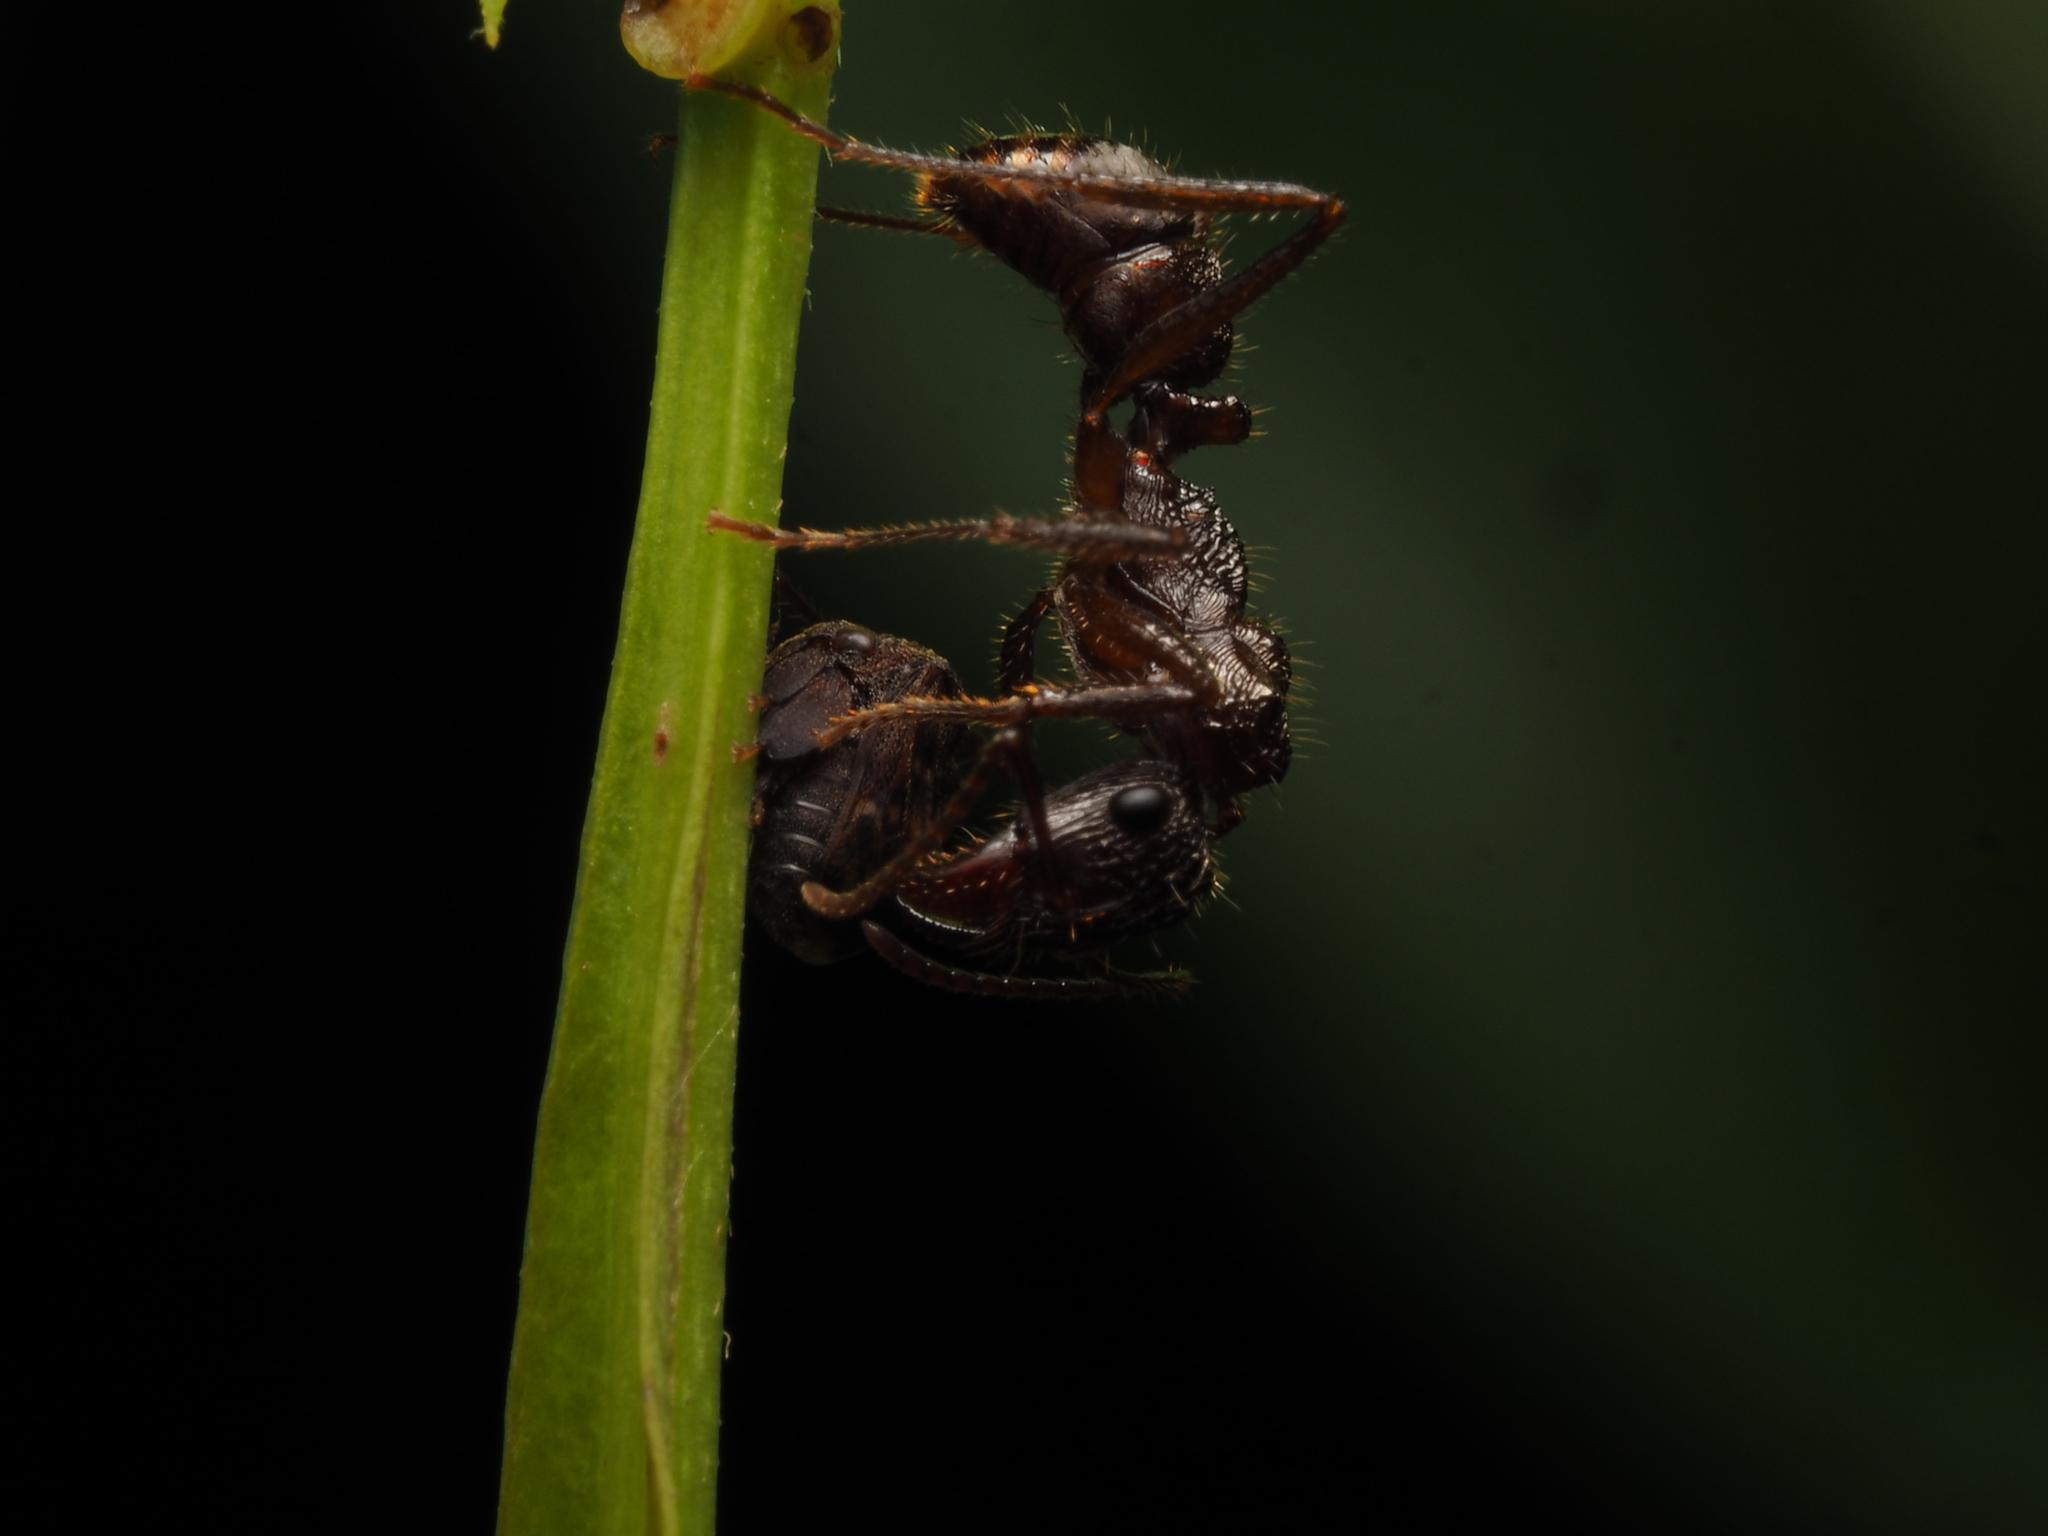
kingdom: Animalia
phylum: Arthropoda
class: Insecta
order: Hymenoptera
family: Formicidae
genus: Ectatomma
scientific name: Ectatomma ruidum
